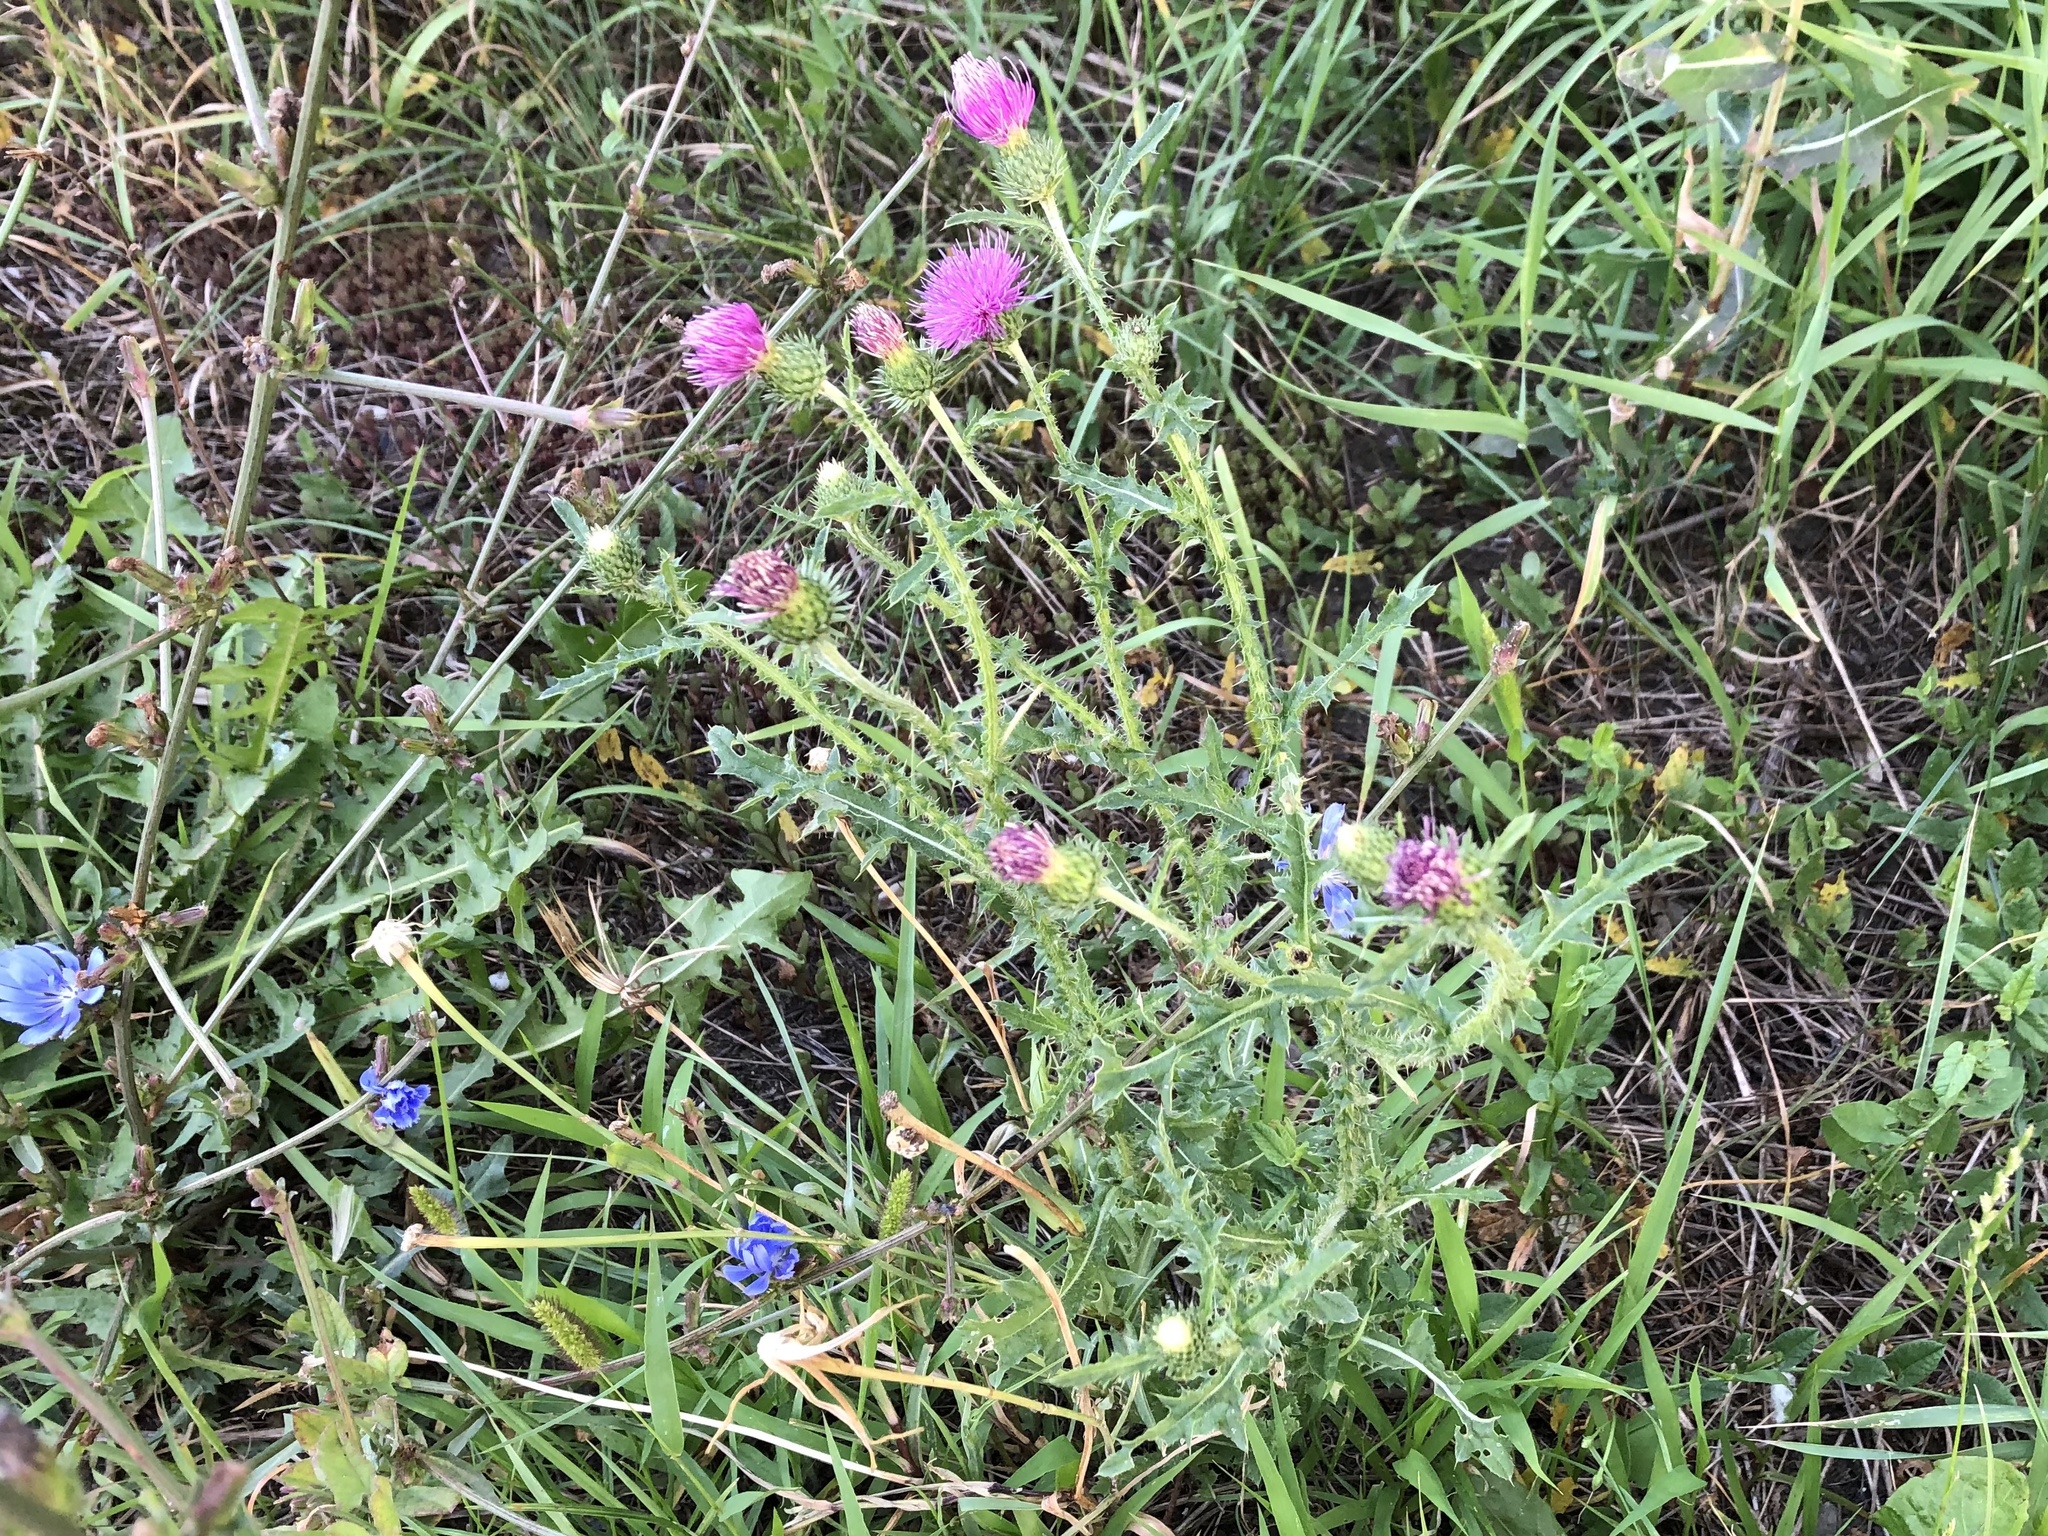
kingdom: Plantae
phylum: Tracheophyta
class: Magnoliopsida
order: Asterales
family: Asteraceae
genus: Carduus
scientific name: Carduus acanthoides
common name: Plumeless thistle
